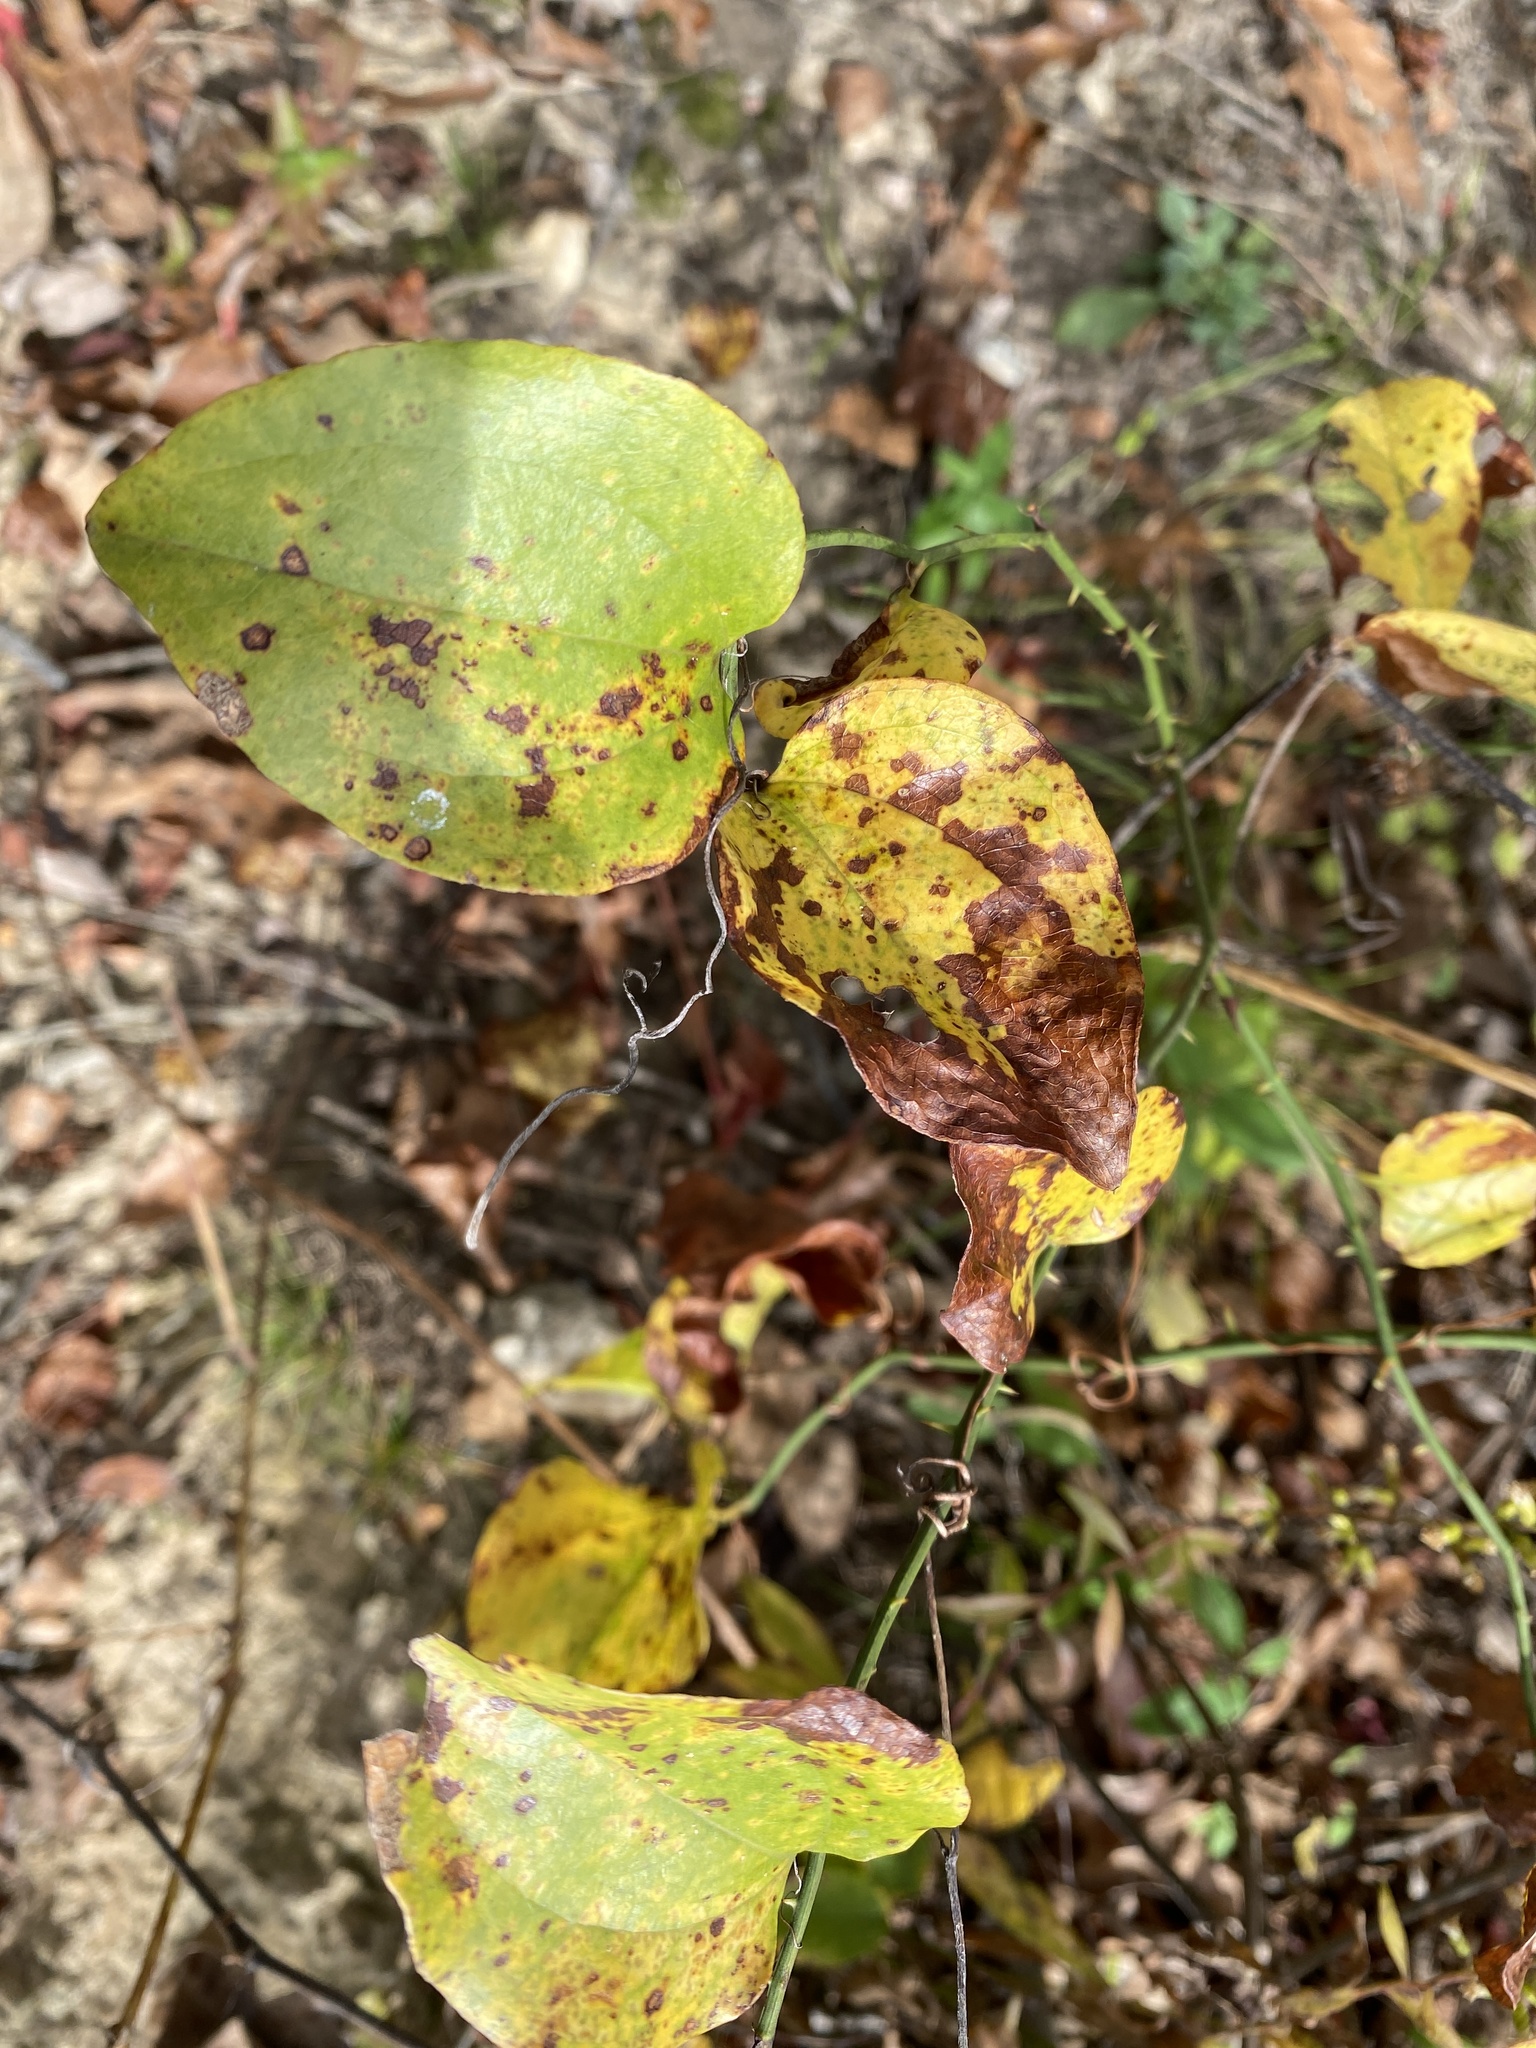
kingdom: Plantae
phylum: Tracheophyta
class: Liliopsida
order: Liliales
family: Smilacaceae
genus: Smilax
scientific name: Smilax rotundifolia
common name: Bullbriar
